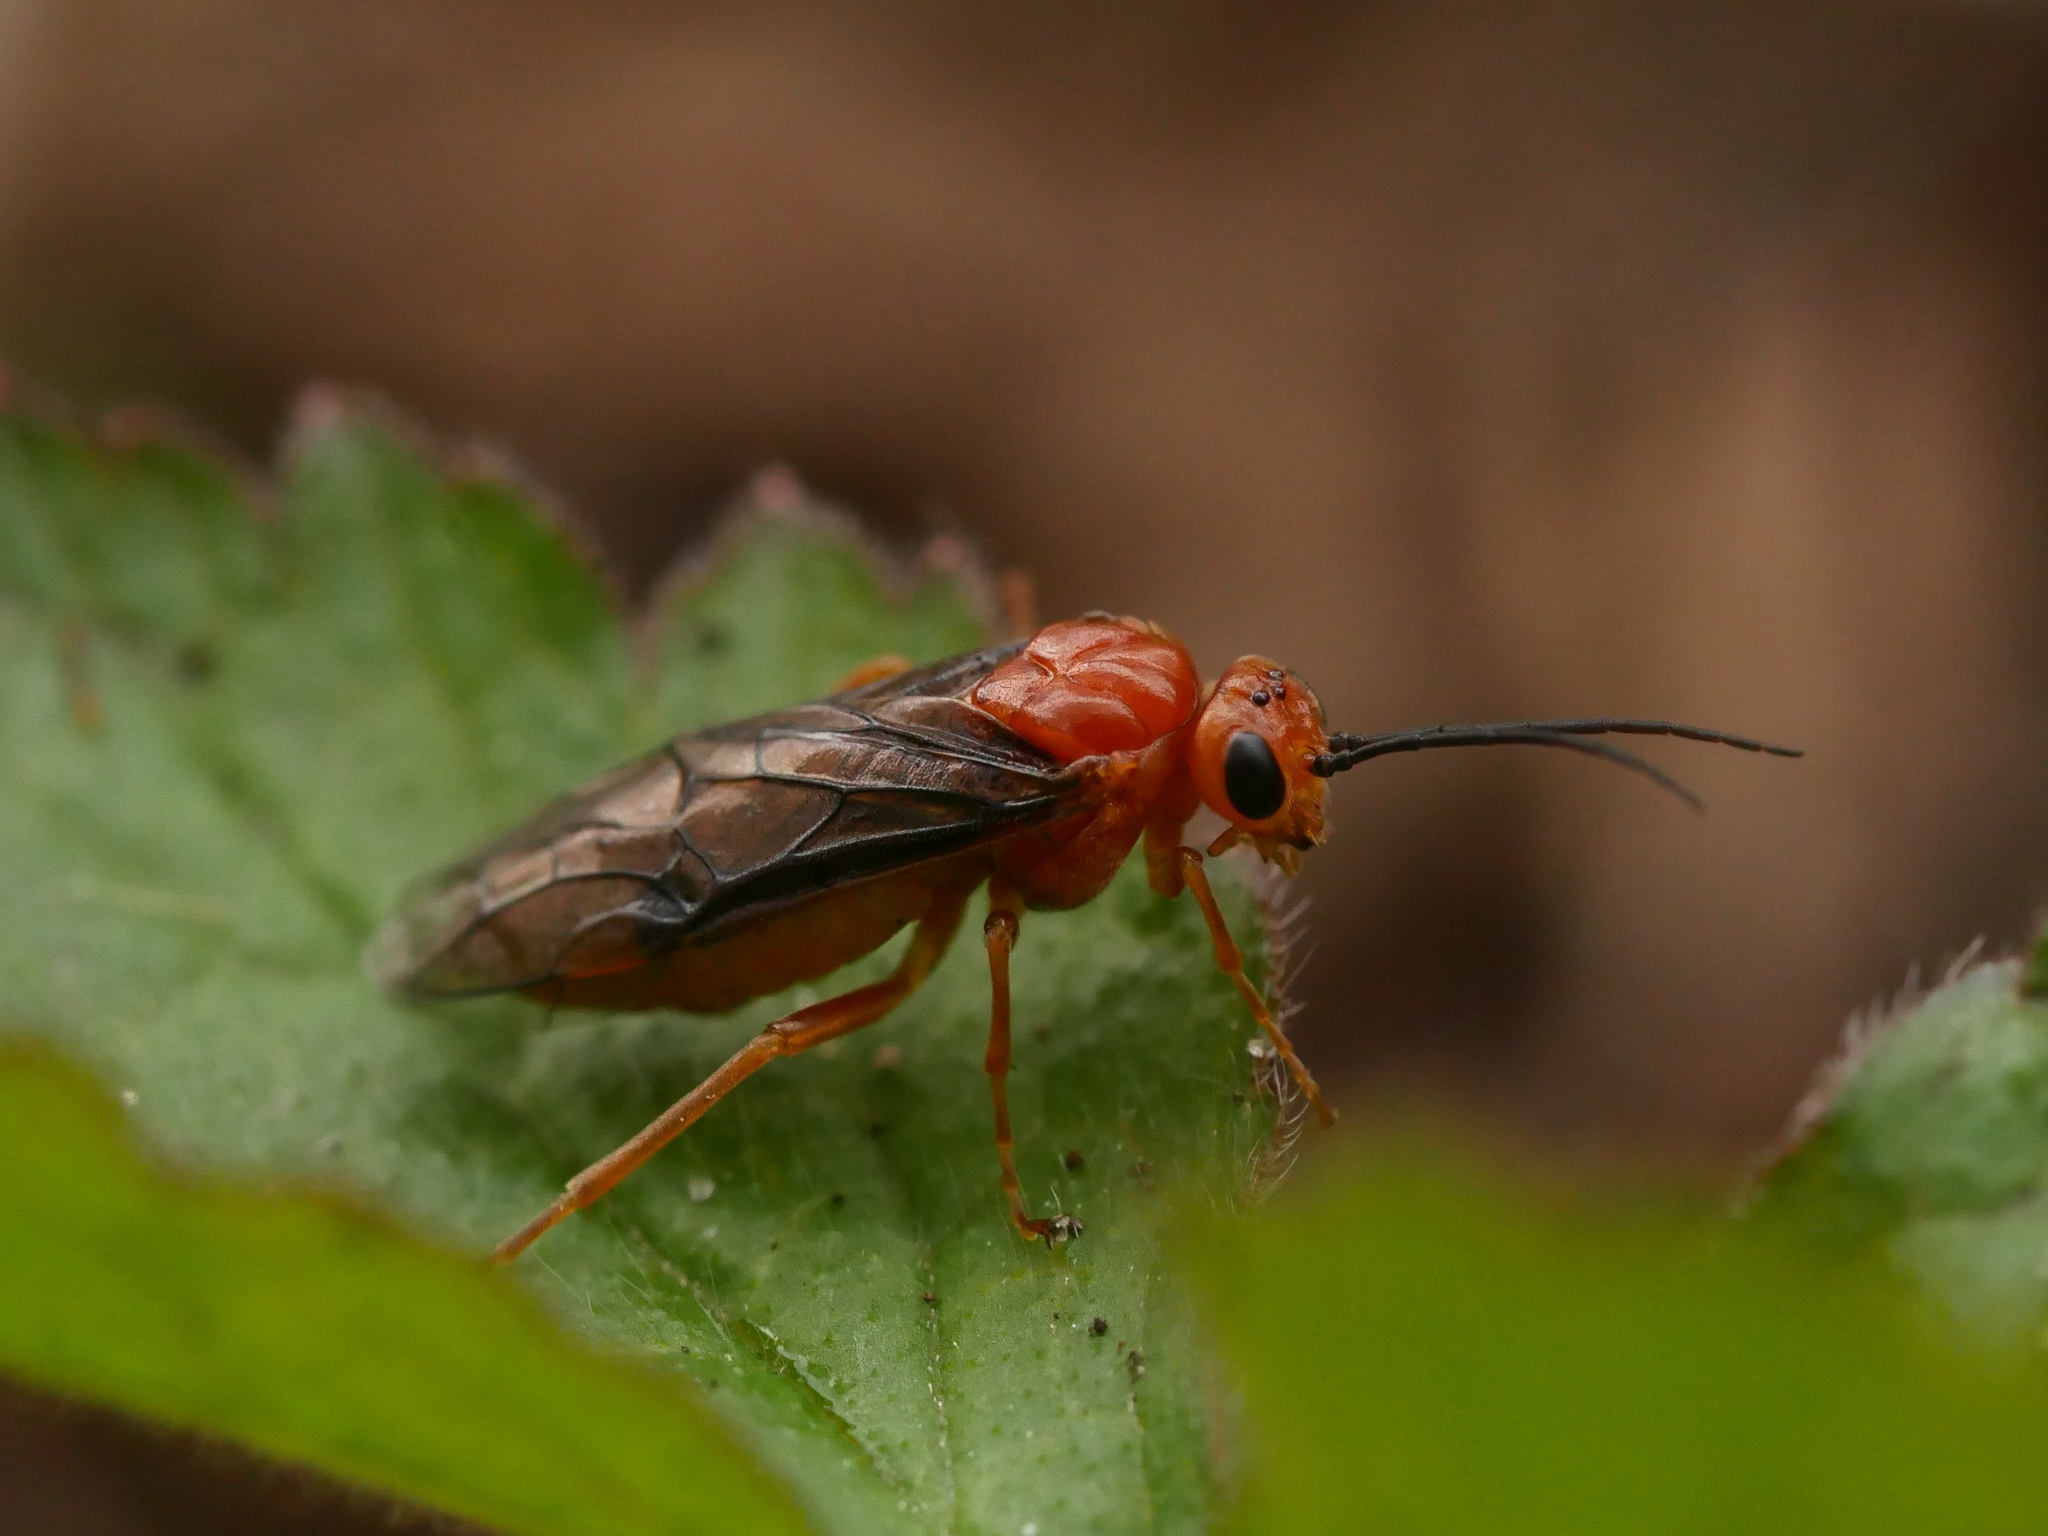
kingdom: Animalia
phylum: Arthropoda
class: Insecta
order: Hymenoptera
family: Tenthredinidae
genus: Nematinus
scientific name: Nematinus steini
